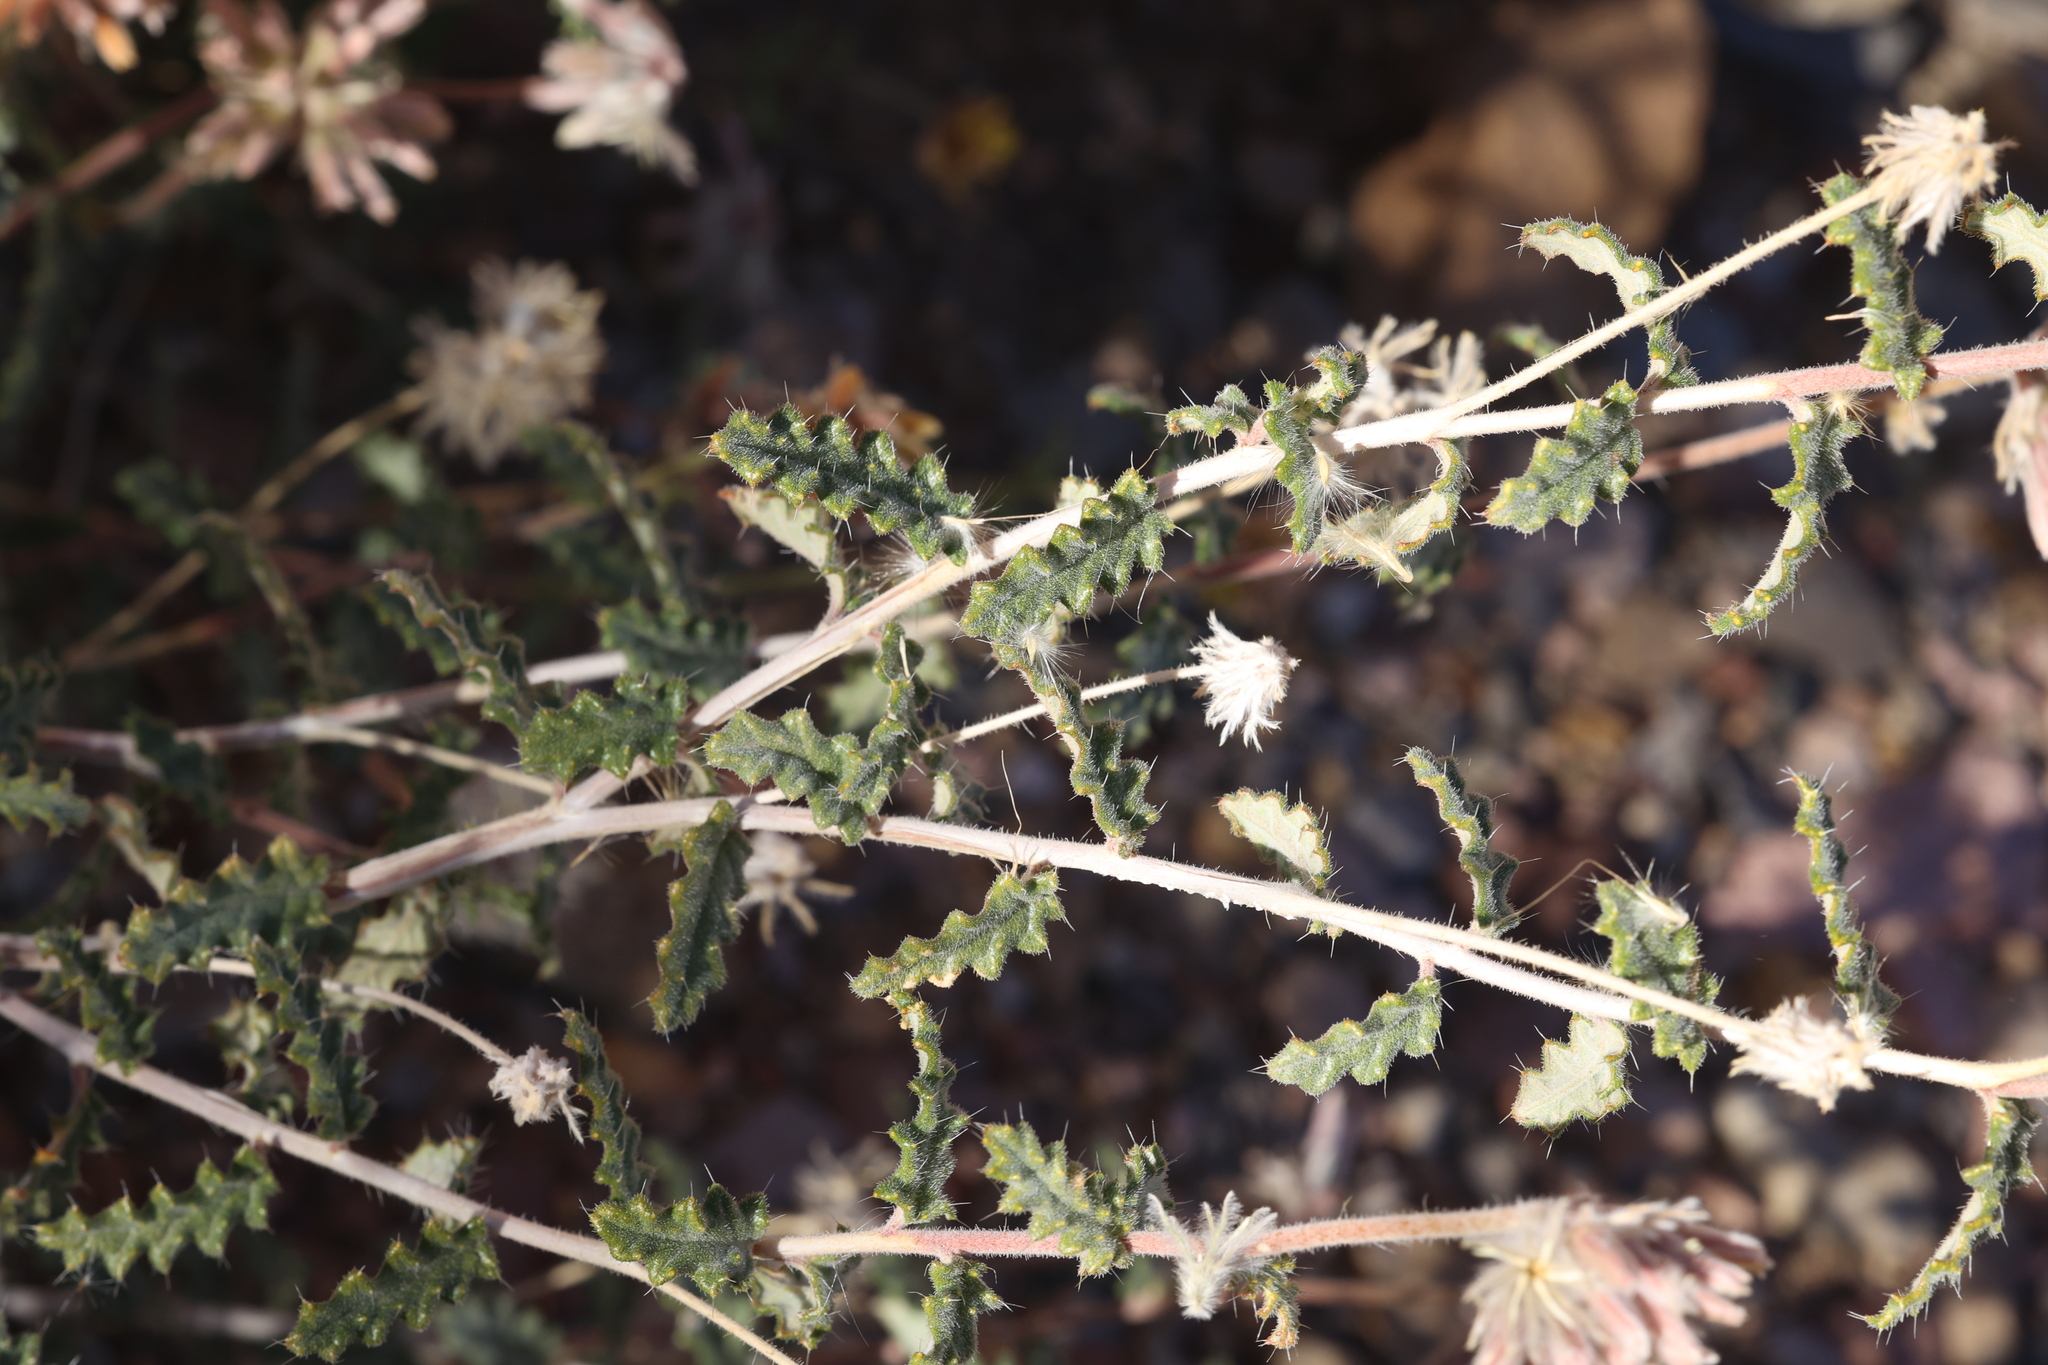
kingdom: Plantae
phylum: Tracheophyta
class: Magnoliopsida
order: Cornales
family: Loasaceae
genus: Cevallia
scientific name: Cevallia sinuata
